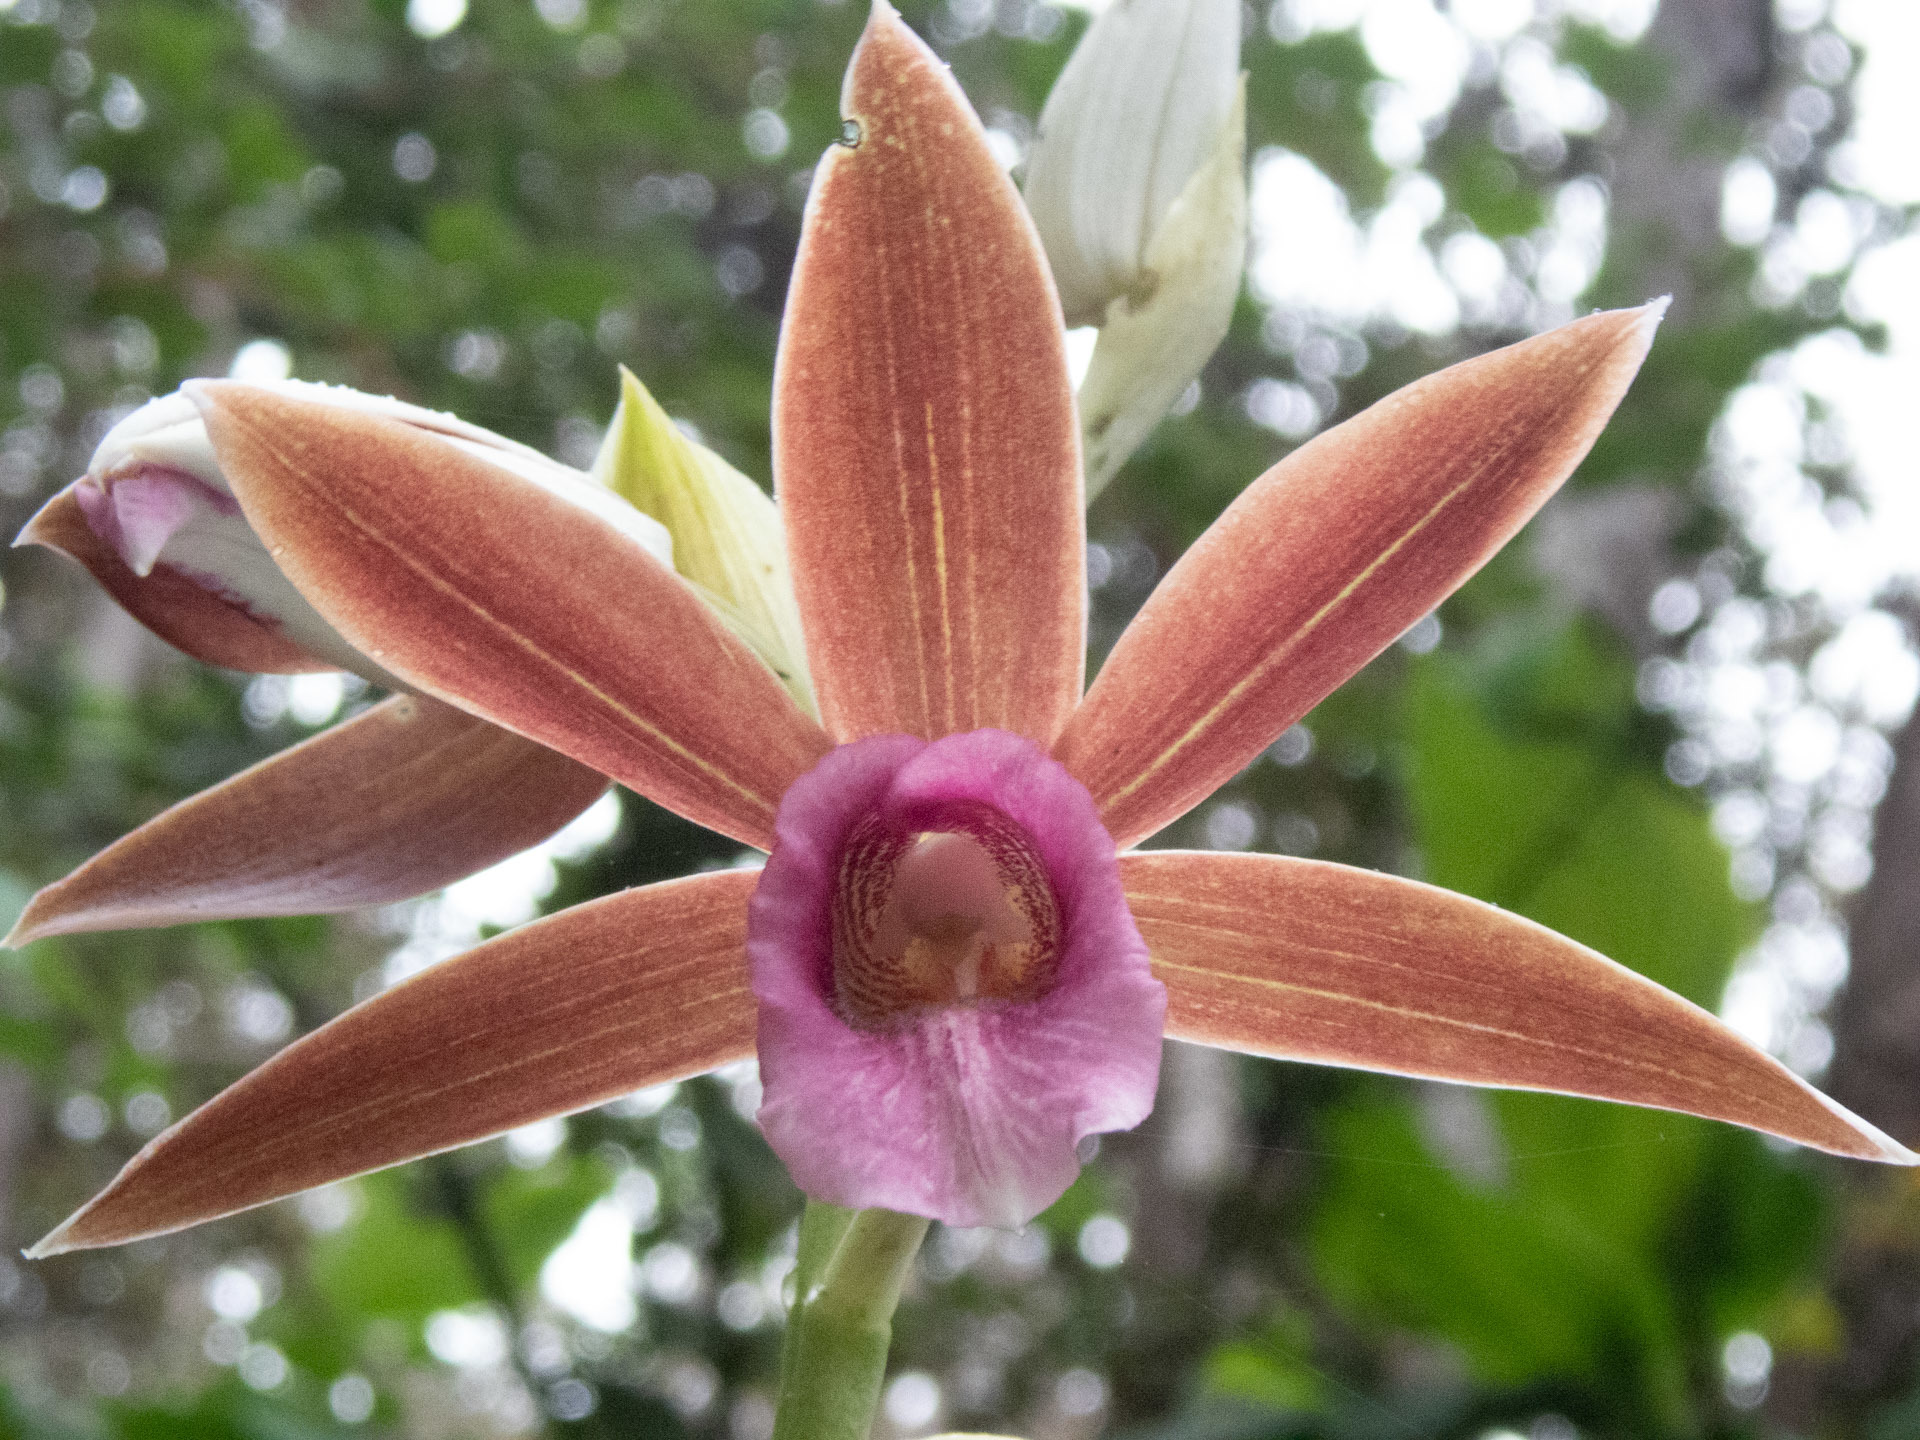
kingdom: Plantae
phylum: Tracheophyta
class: Liliopsida
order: Asparagales
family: Orchidaceae
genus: Calanthe
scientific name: Calanthe tankervilleae
